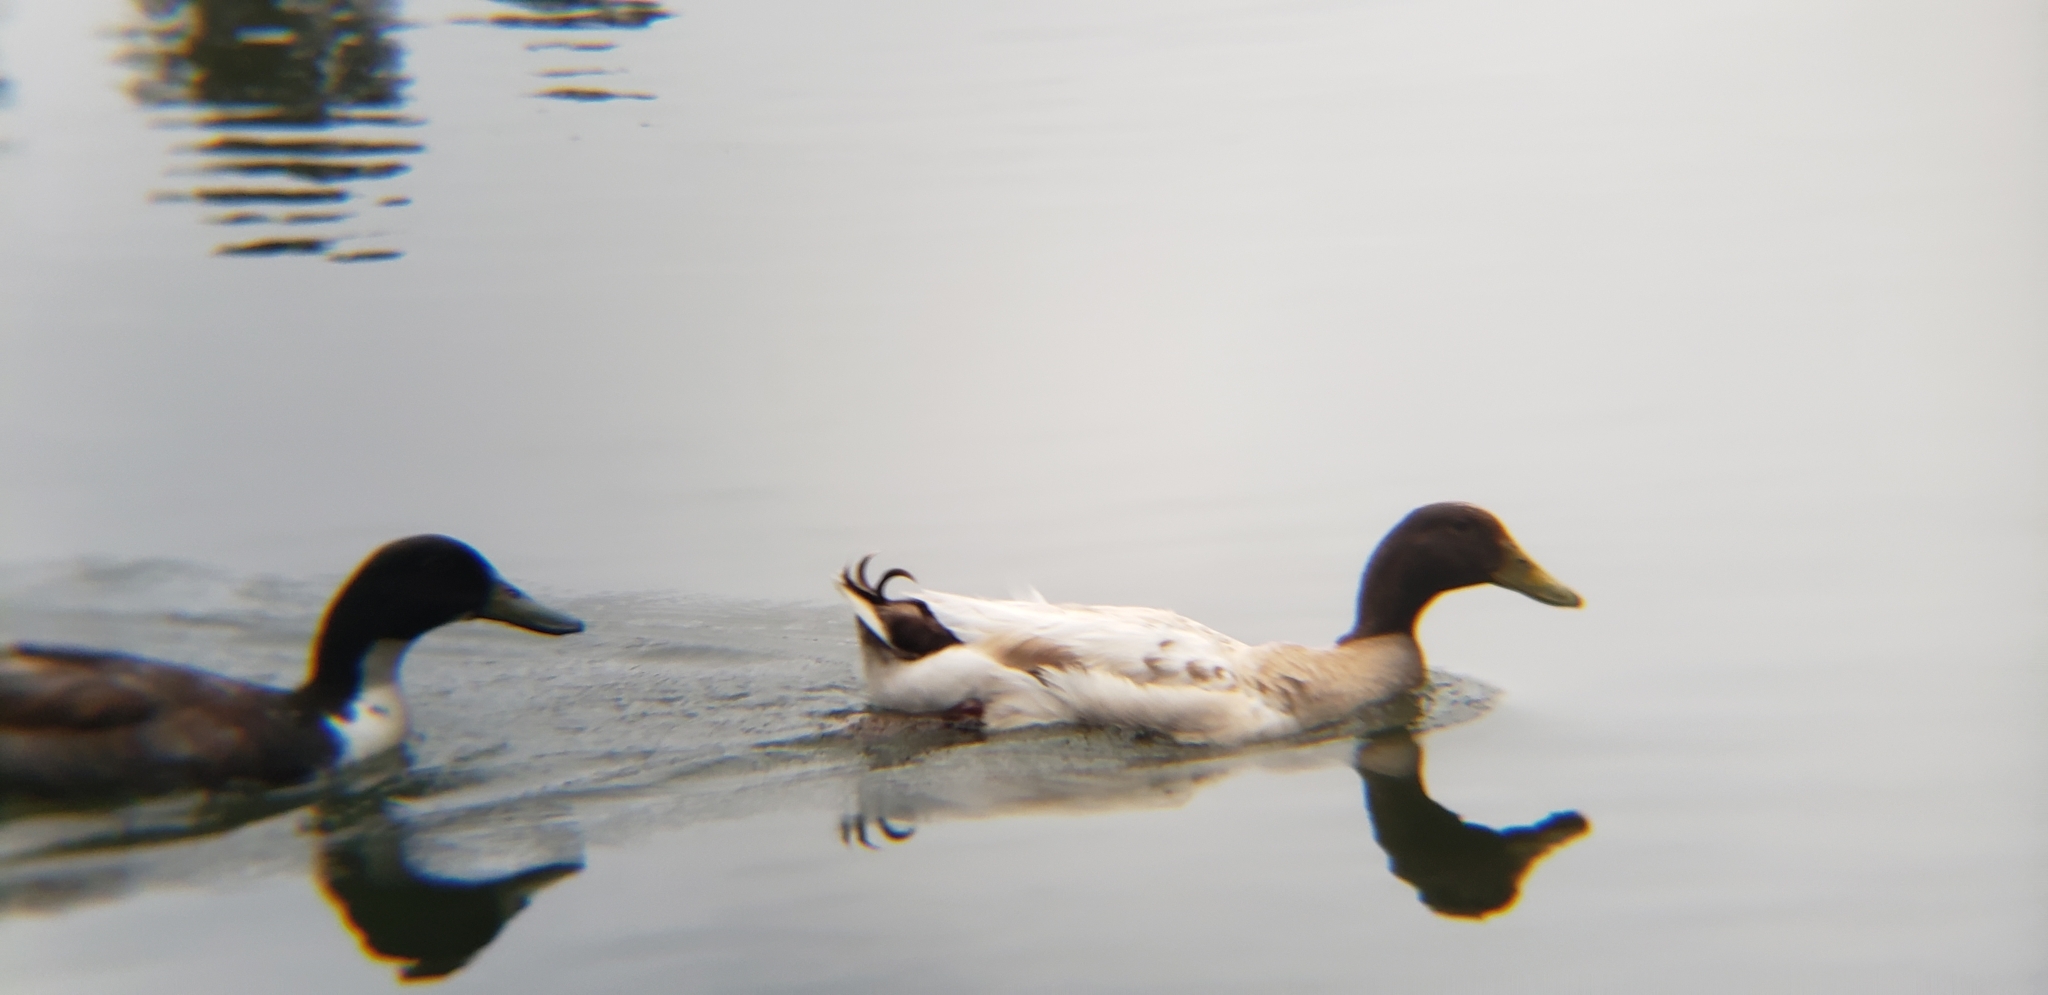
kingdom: Animalia
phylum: Chordata
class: Aves
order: Anseriformes
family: Anatidae
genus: Anas
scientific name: Anas platyrhynchos
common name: Mallard
